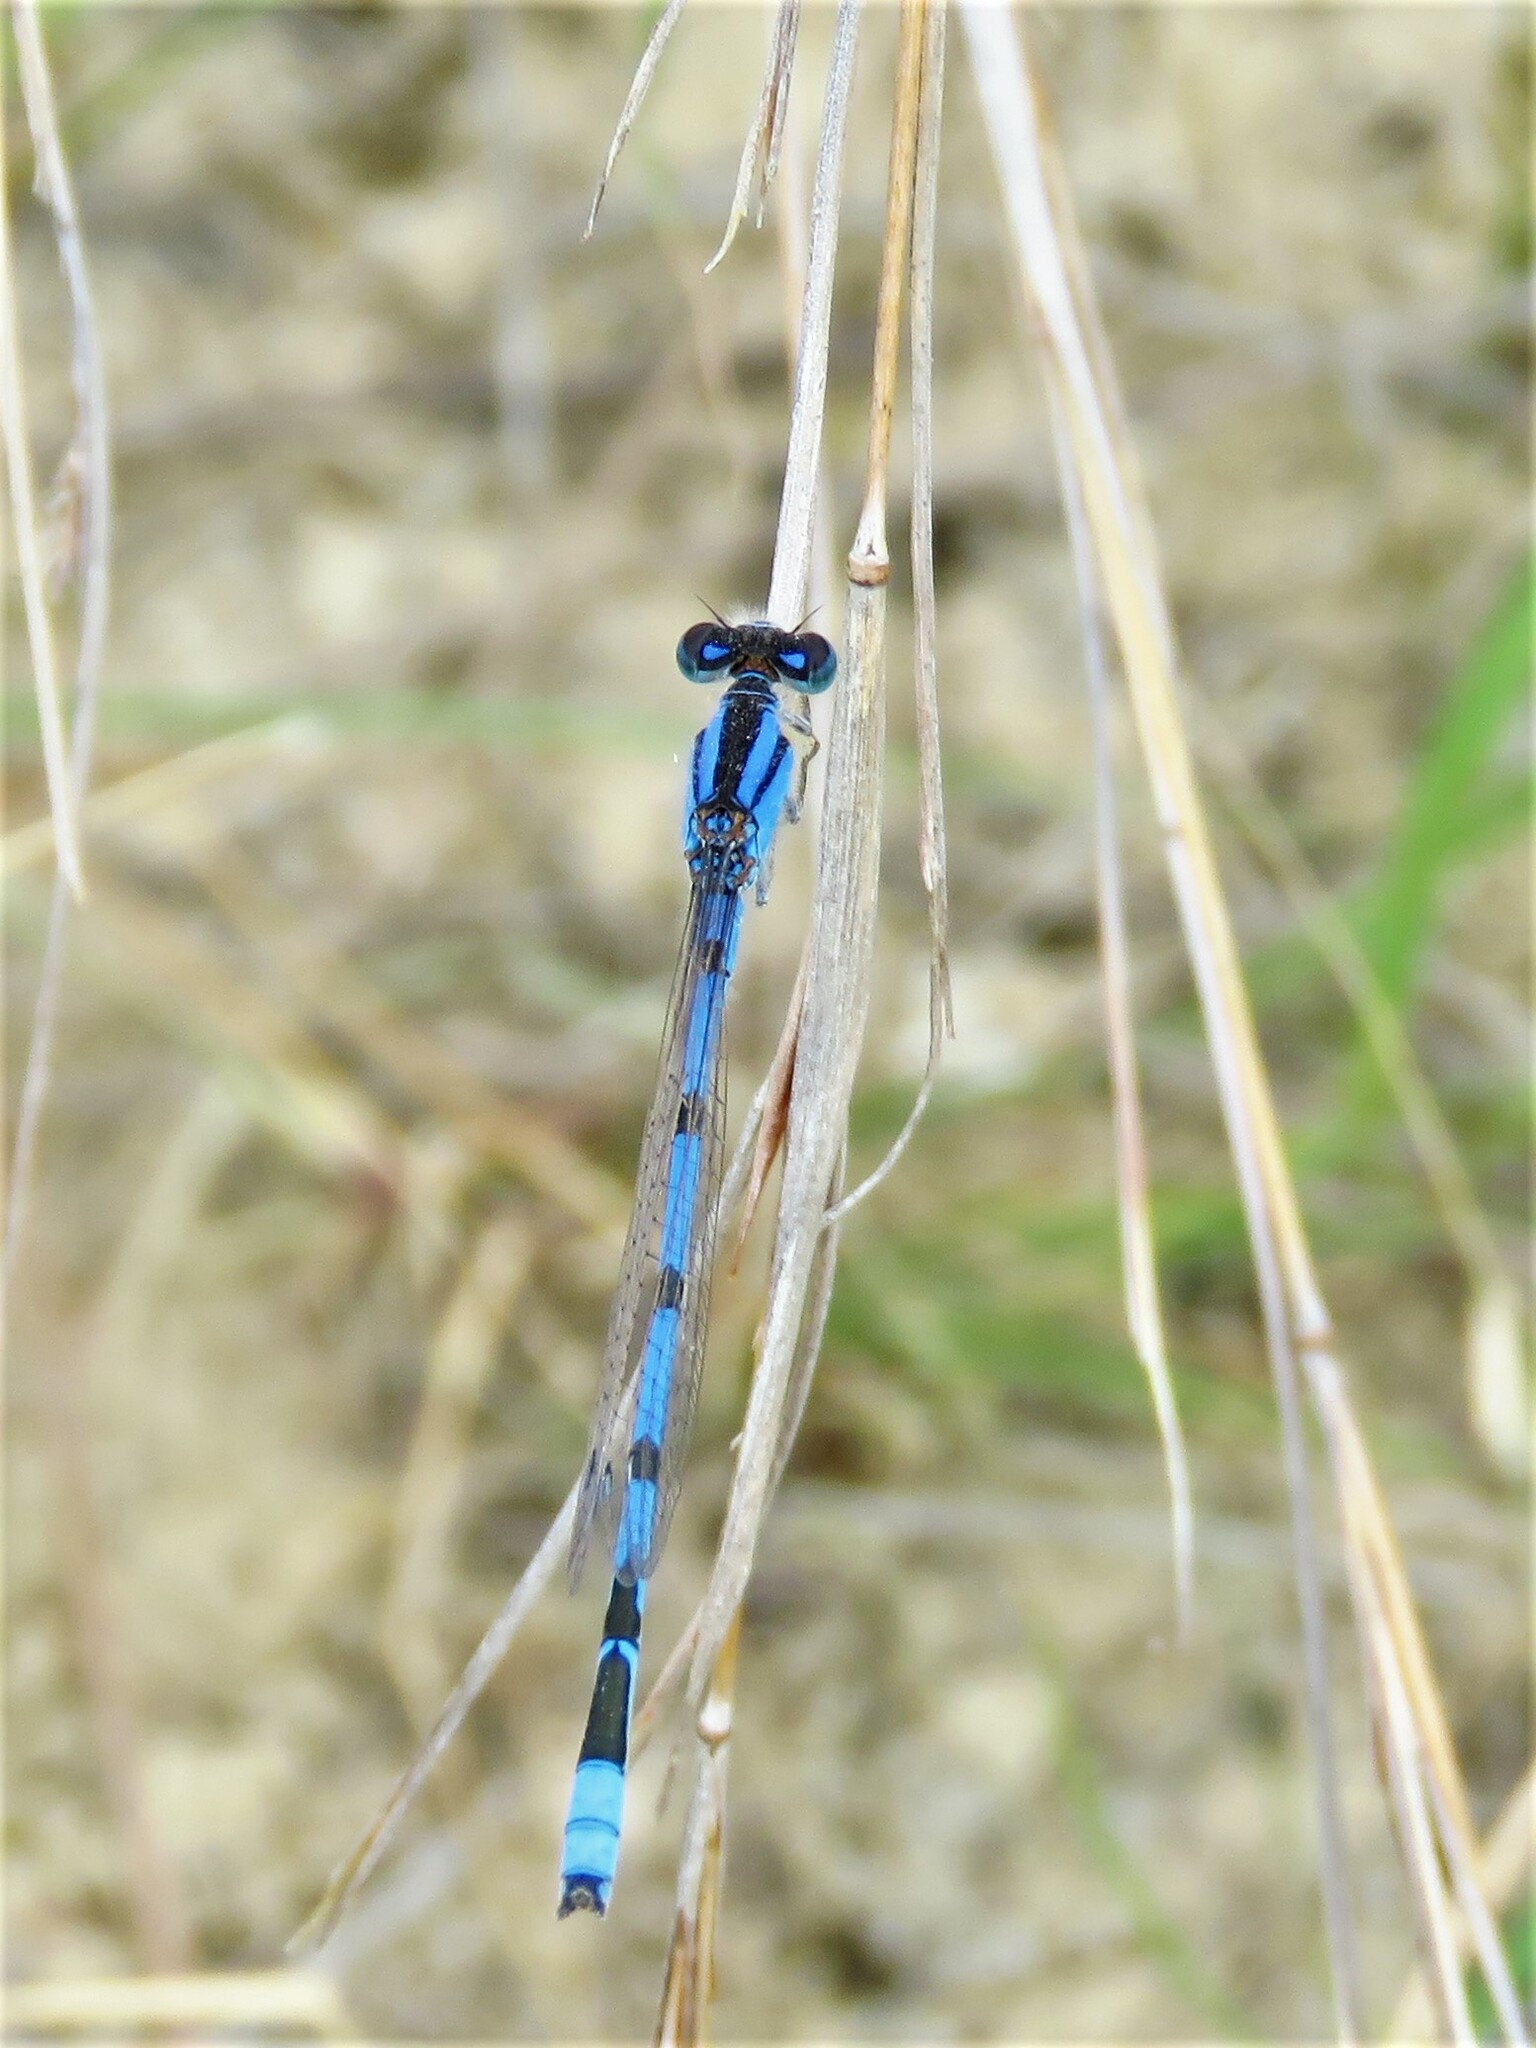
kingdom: Animalia
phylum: Arthropoda
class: Insecta
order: Odonata
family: Coenagrionidae
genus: Enallagma
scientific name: Enallagma civile
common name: Damselfly
